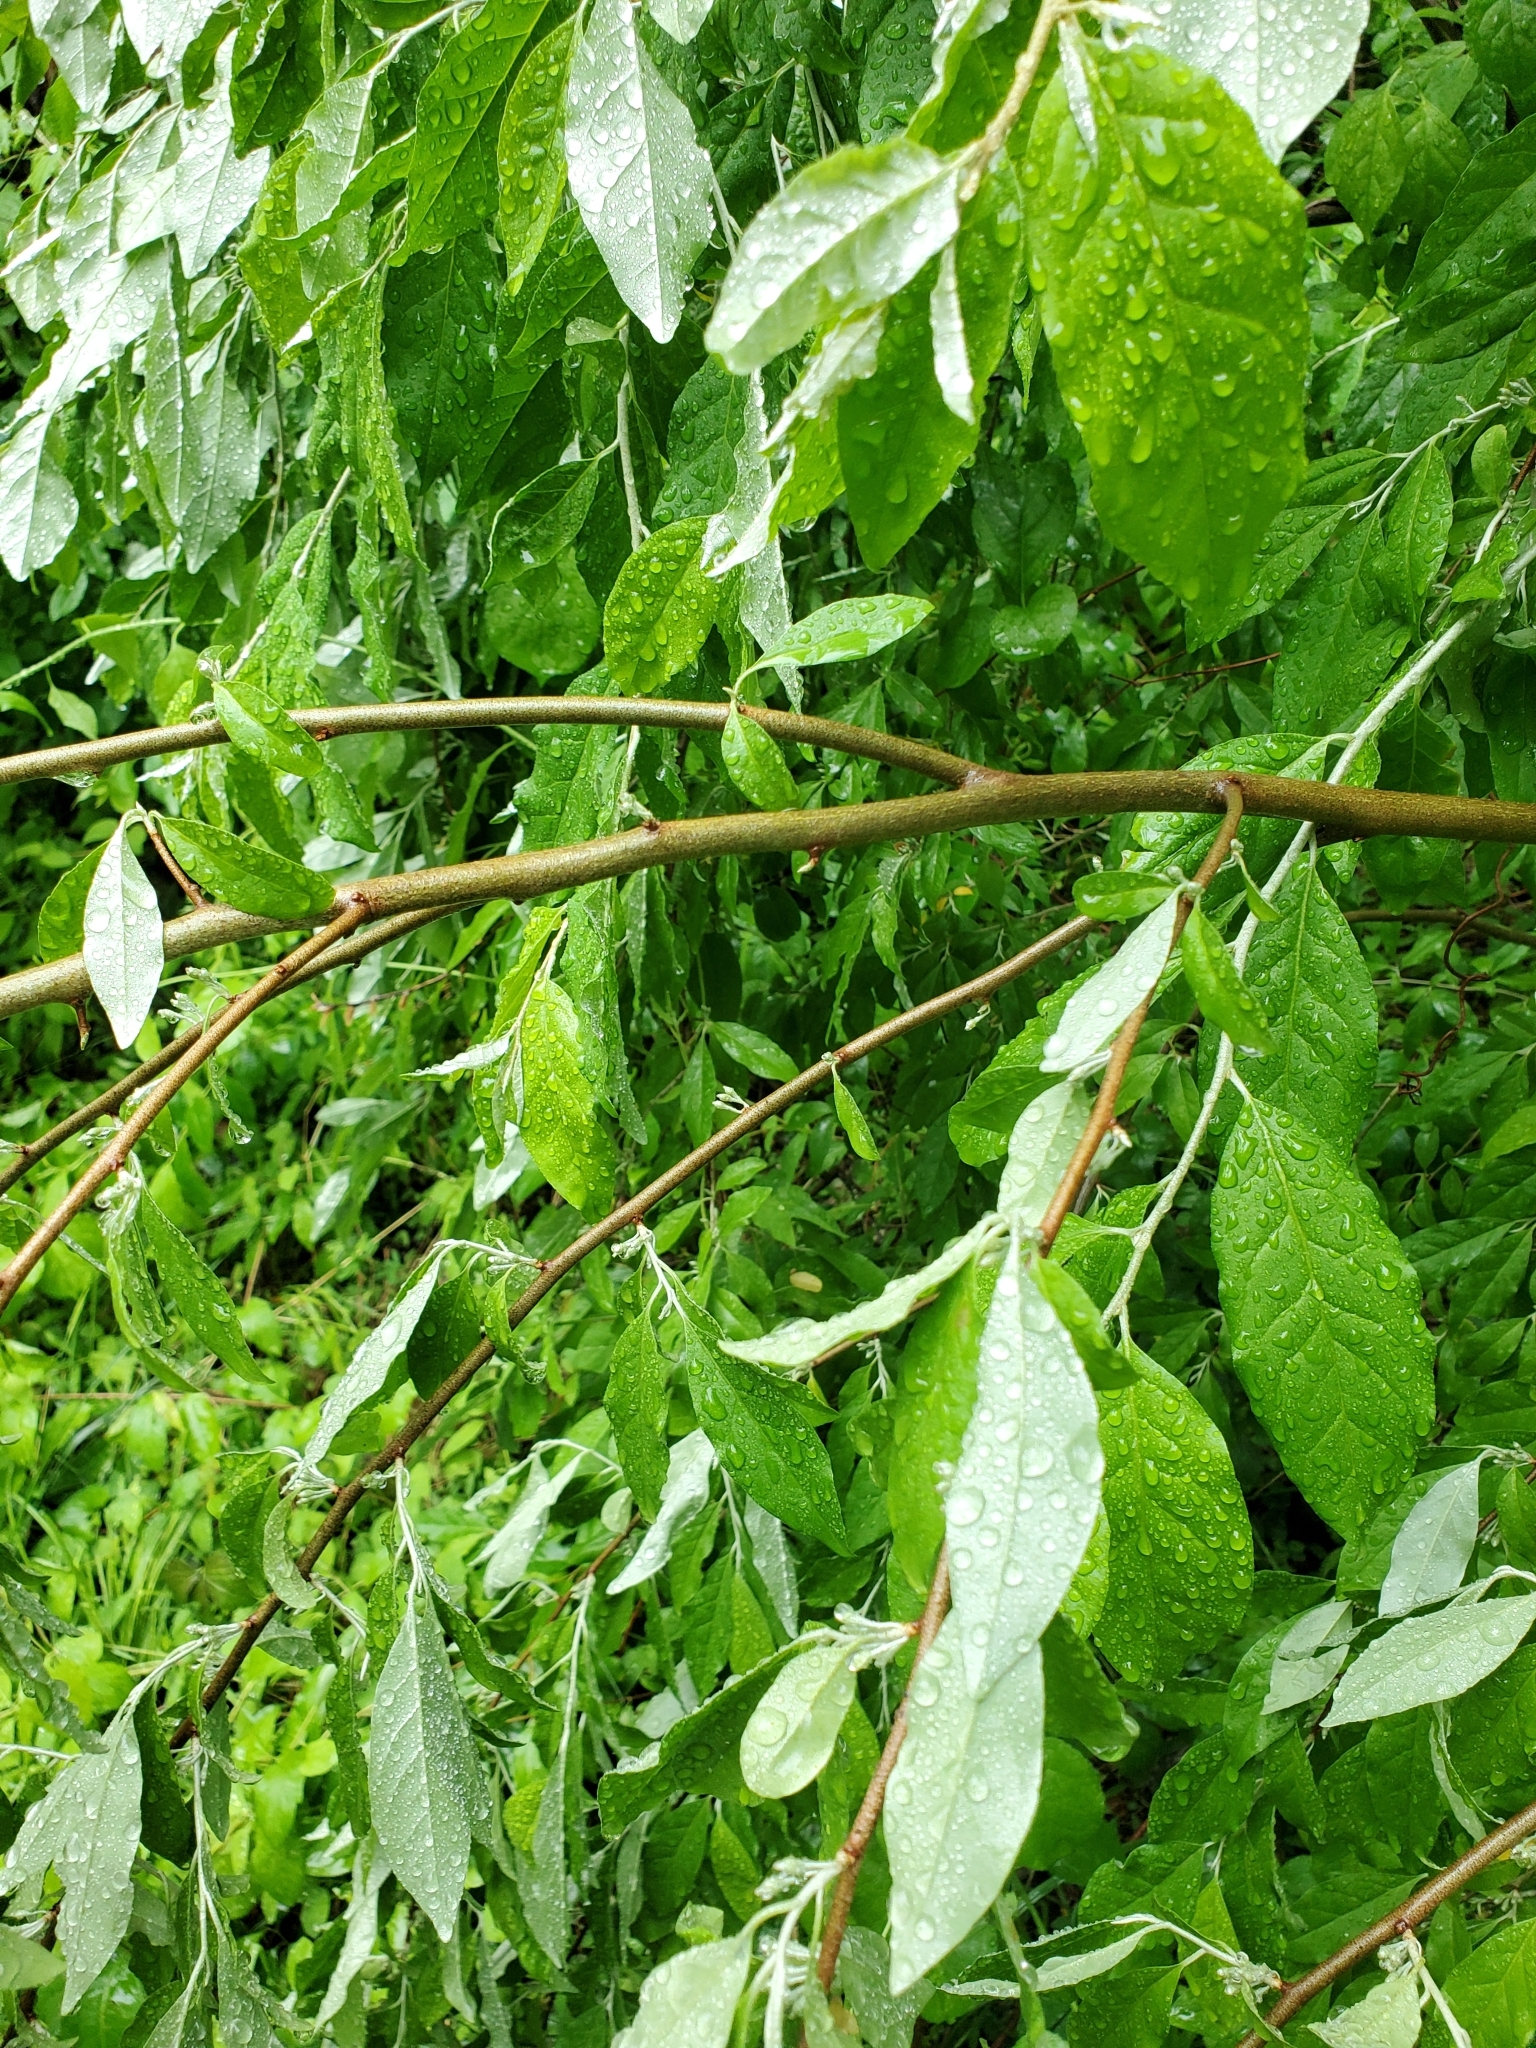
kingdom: Plantae
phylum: Tracheophyta
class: Magnoliopsida
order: Rosales
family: Elaeagnaceae
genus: Elaeagnus
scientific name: Elaeagnus umbellata
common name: Autumn olive
